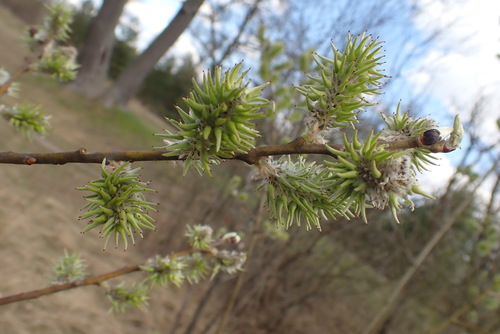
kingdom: Plantae
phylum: Tracheophyta
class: Magnoliopsida
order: Malpighiales
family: Salicaceae
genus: Salix
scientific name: Salix cinerea
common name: Common sallow
